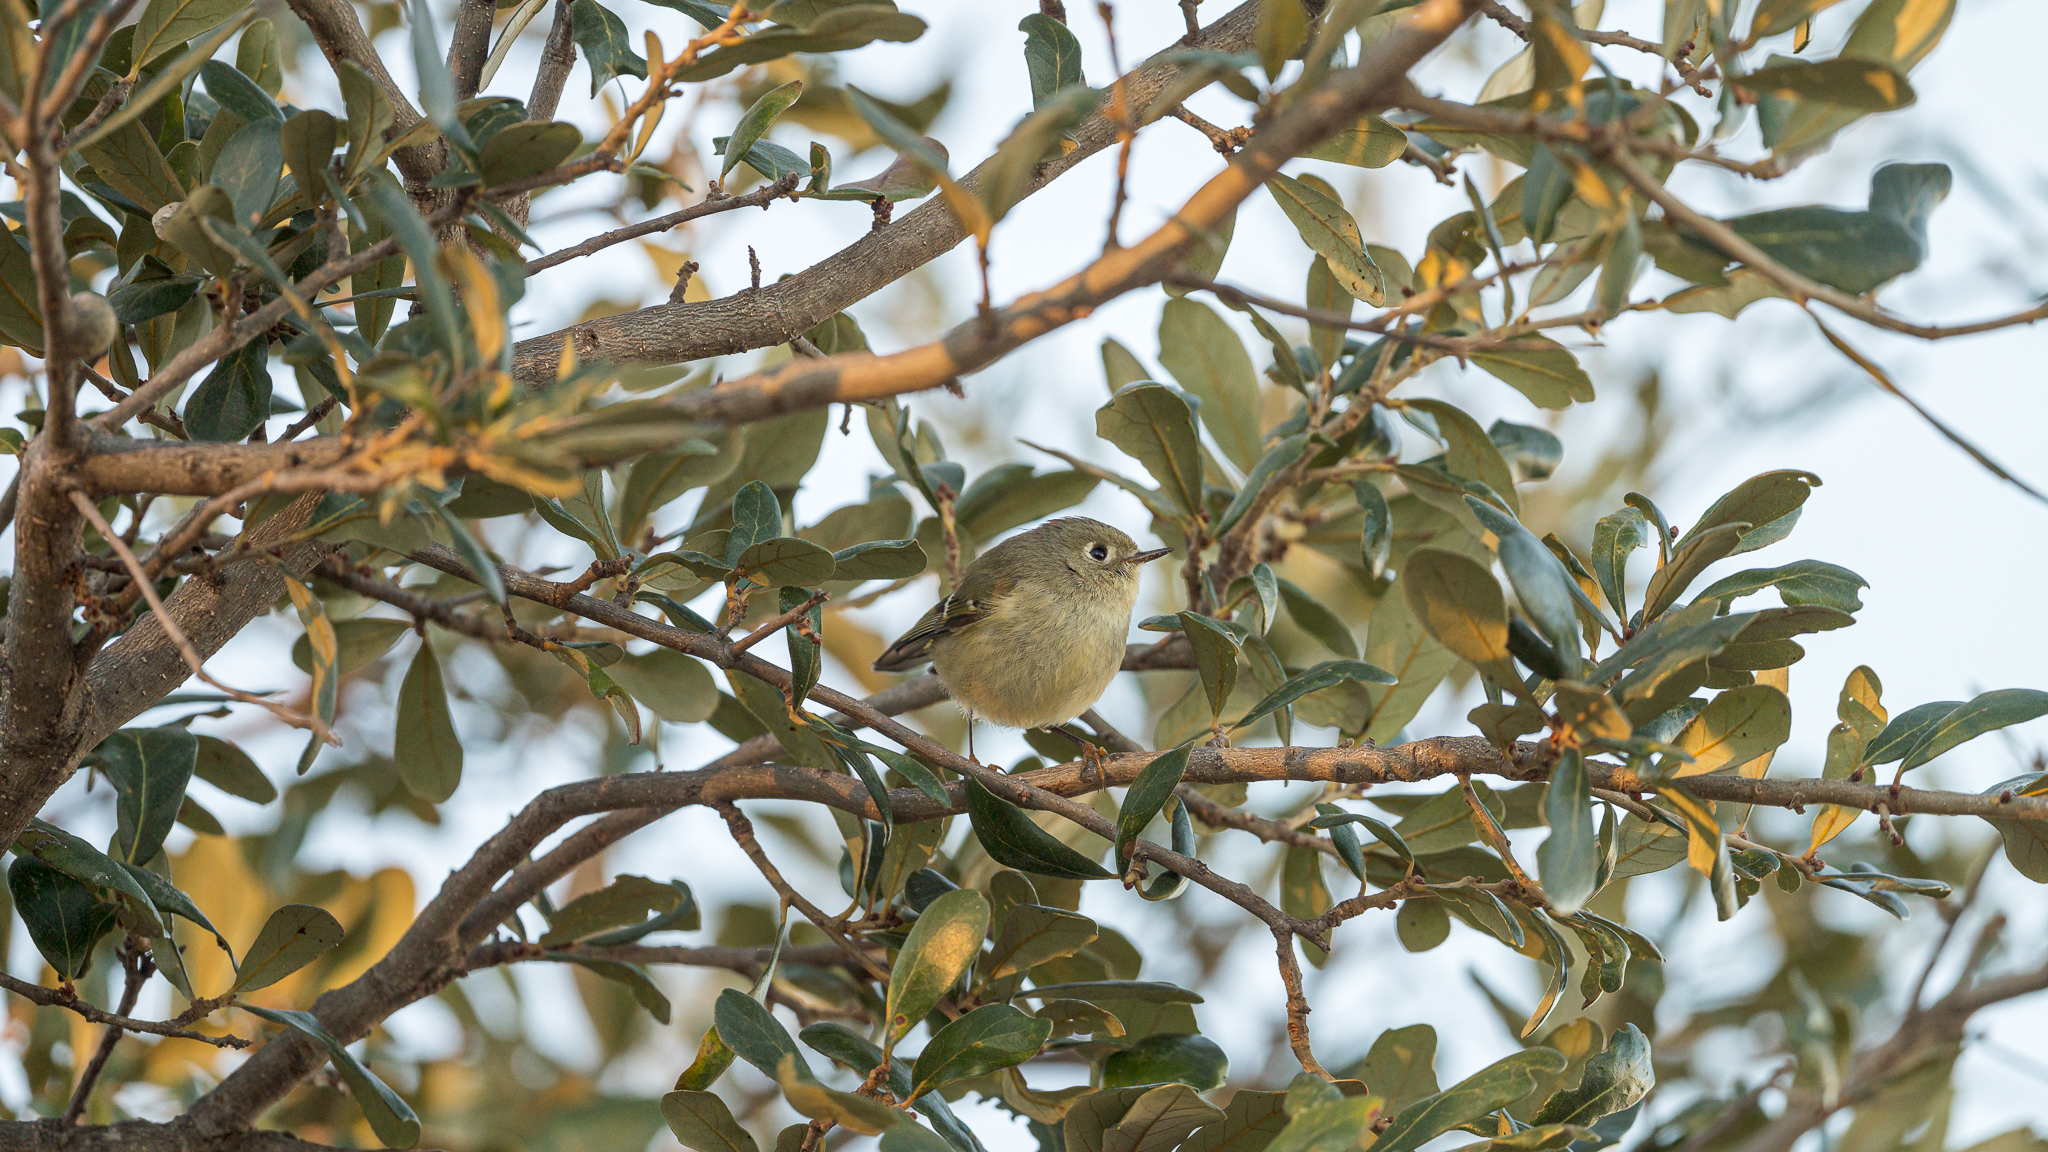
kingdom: Animalia
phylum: Chordata
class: Aves
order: Passeriformes
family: Regulidae
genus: Regulus
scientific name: Regulus calendula
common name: Ruby-crowned kinglet
